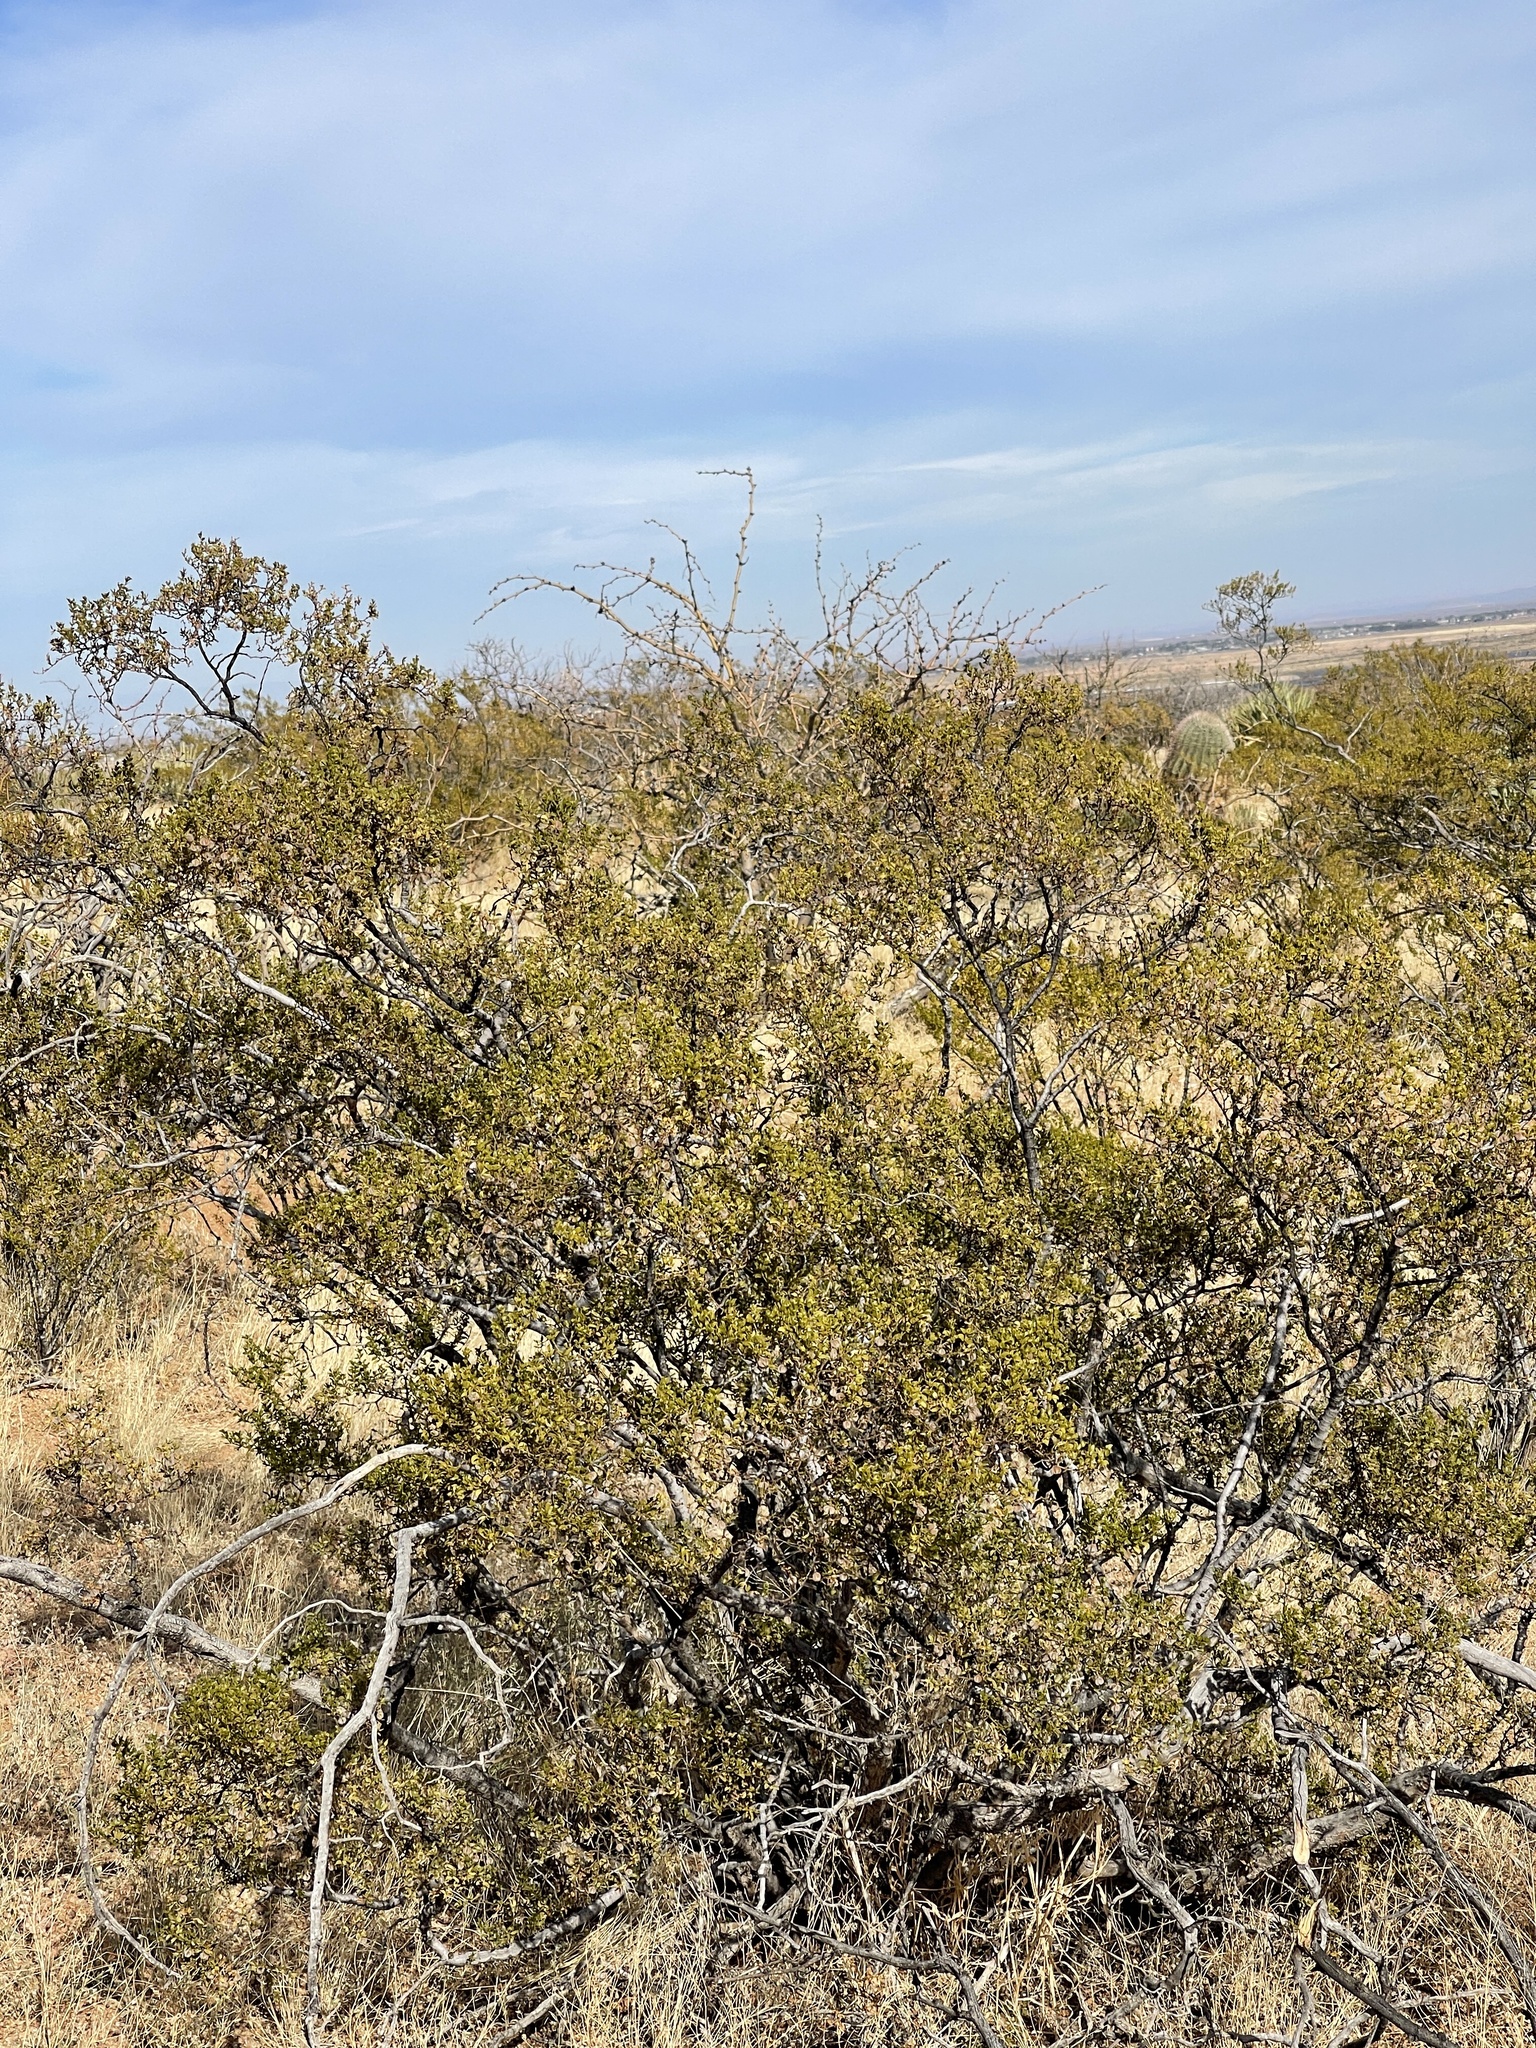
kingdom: Plantae
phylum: Tracheophyta
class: Magnoliopsida
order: Zygophyllales
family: Zygophyllaceae
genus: Larrea
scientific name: Larrea tridentata
